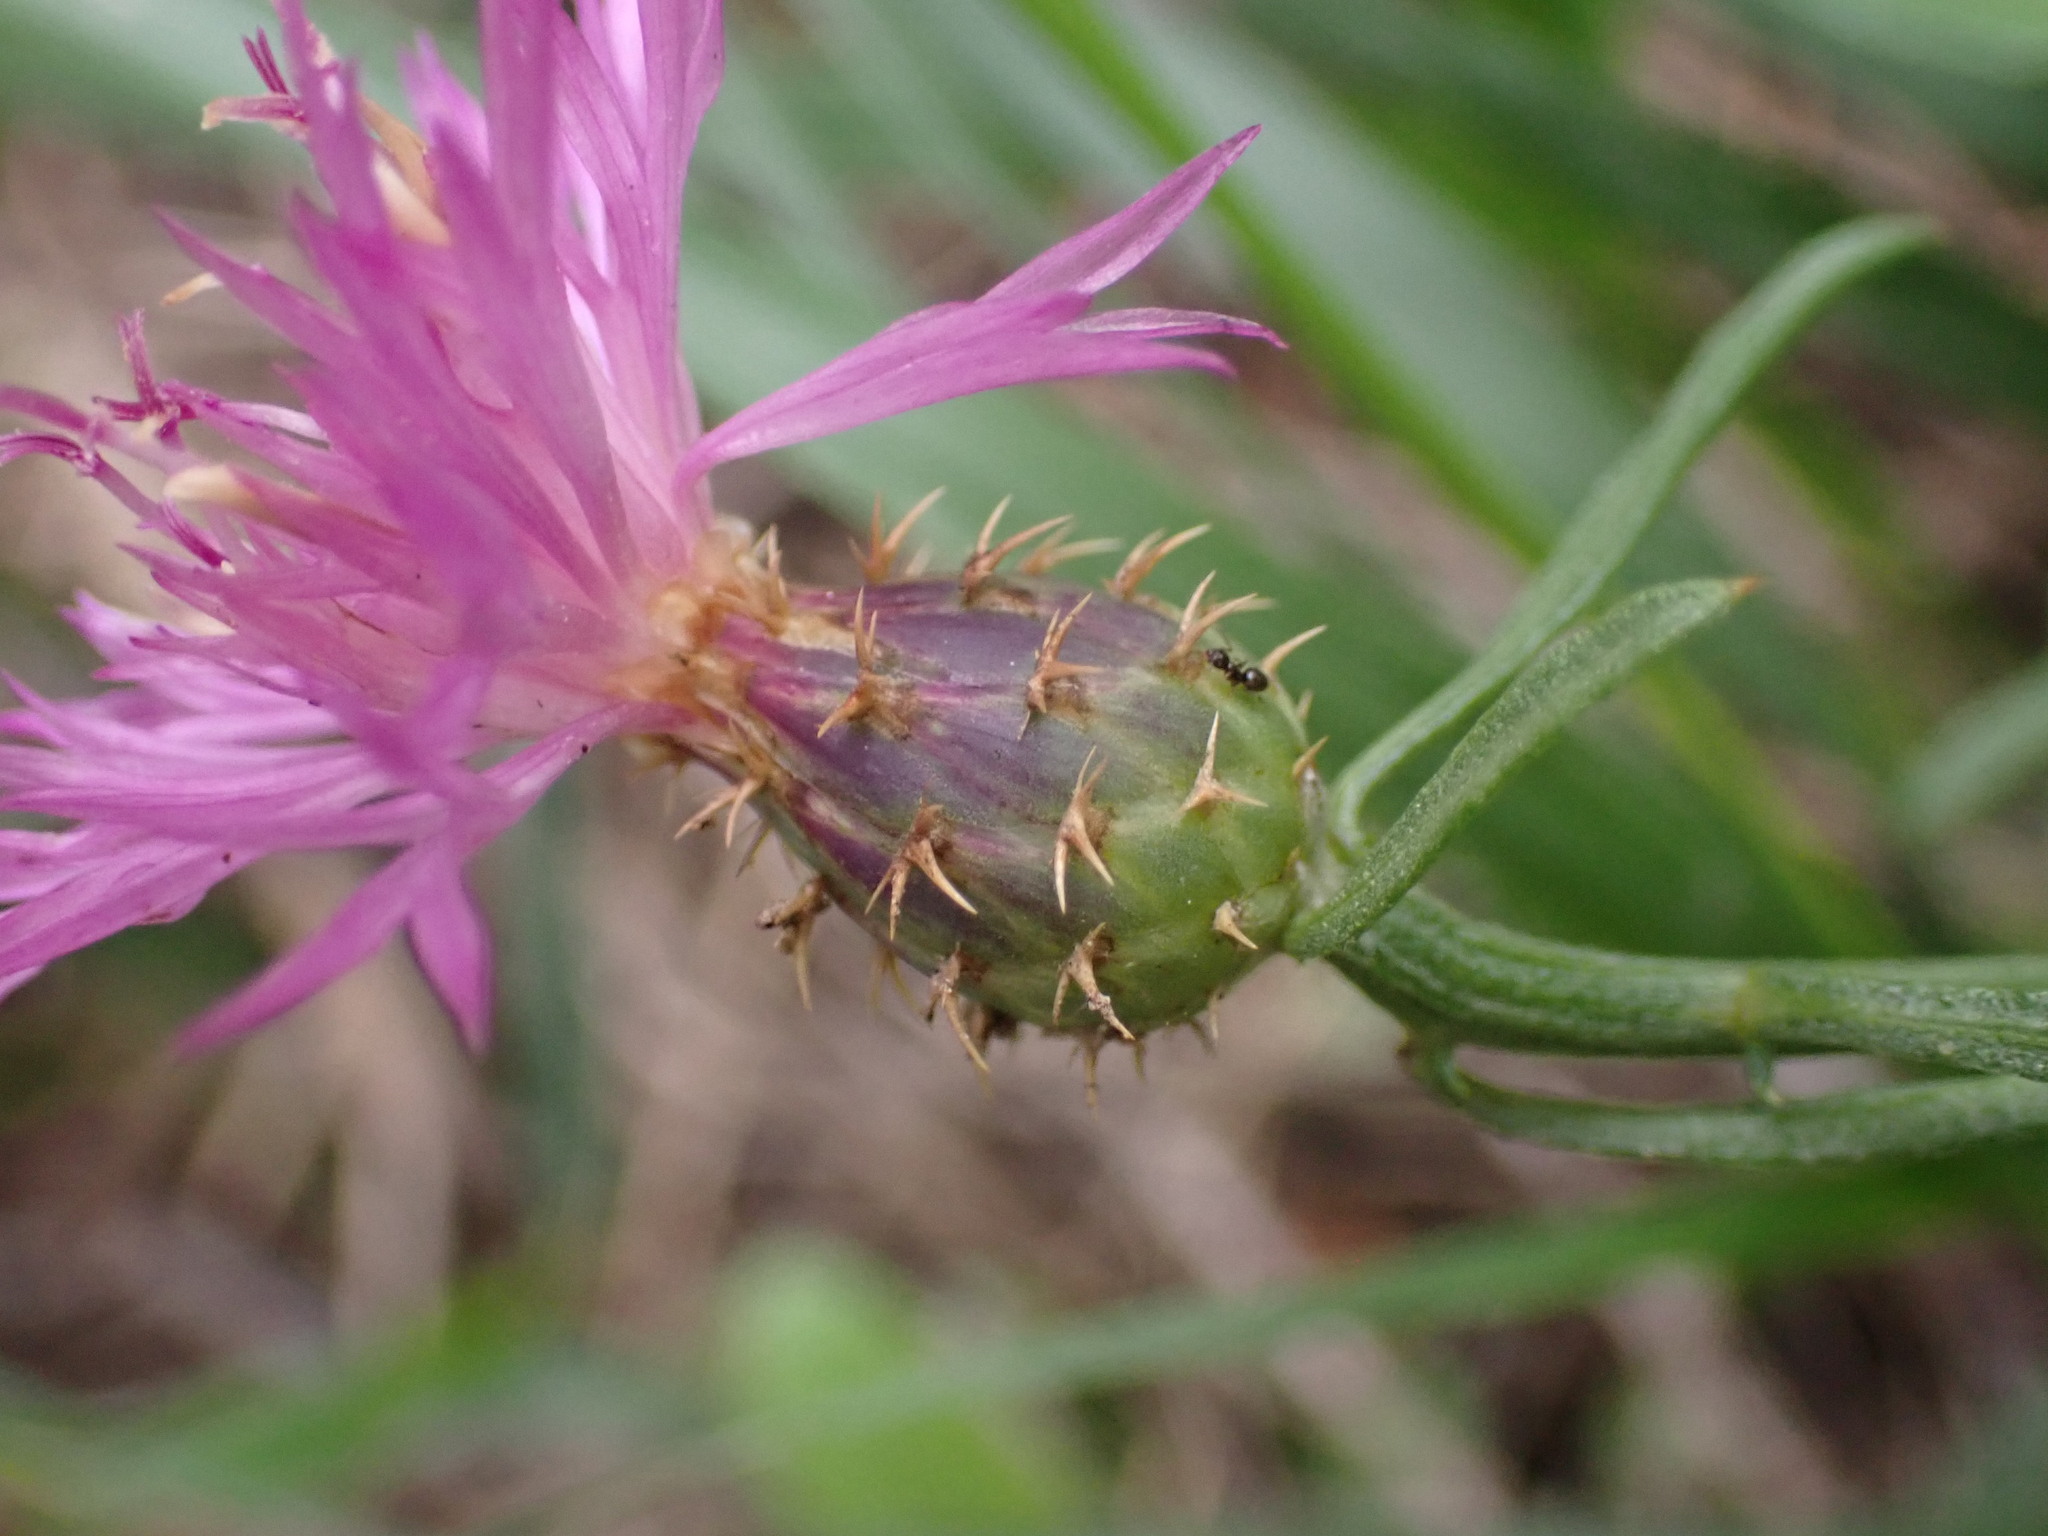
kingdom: Plantae
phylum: Tracheophyta
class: Magnoliopsida
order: Asterales
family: Asteraceae
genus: Centaurea
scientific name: Centaurea aspera
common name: Rough star-thistle
